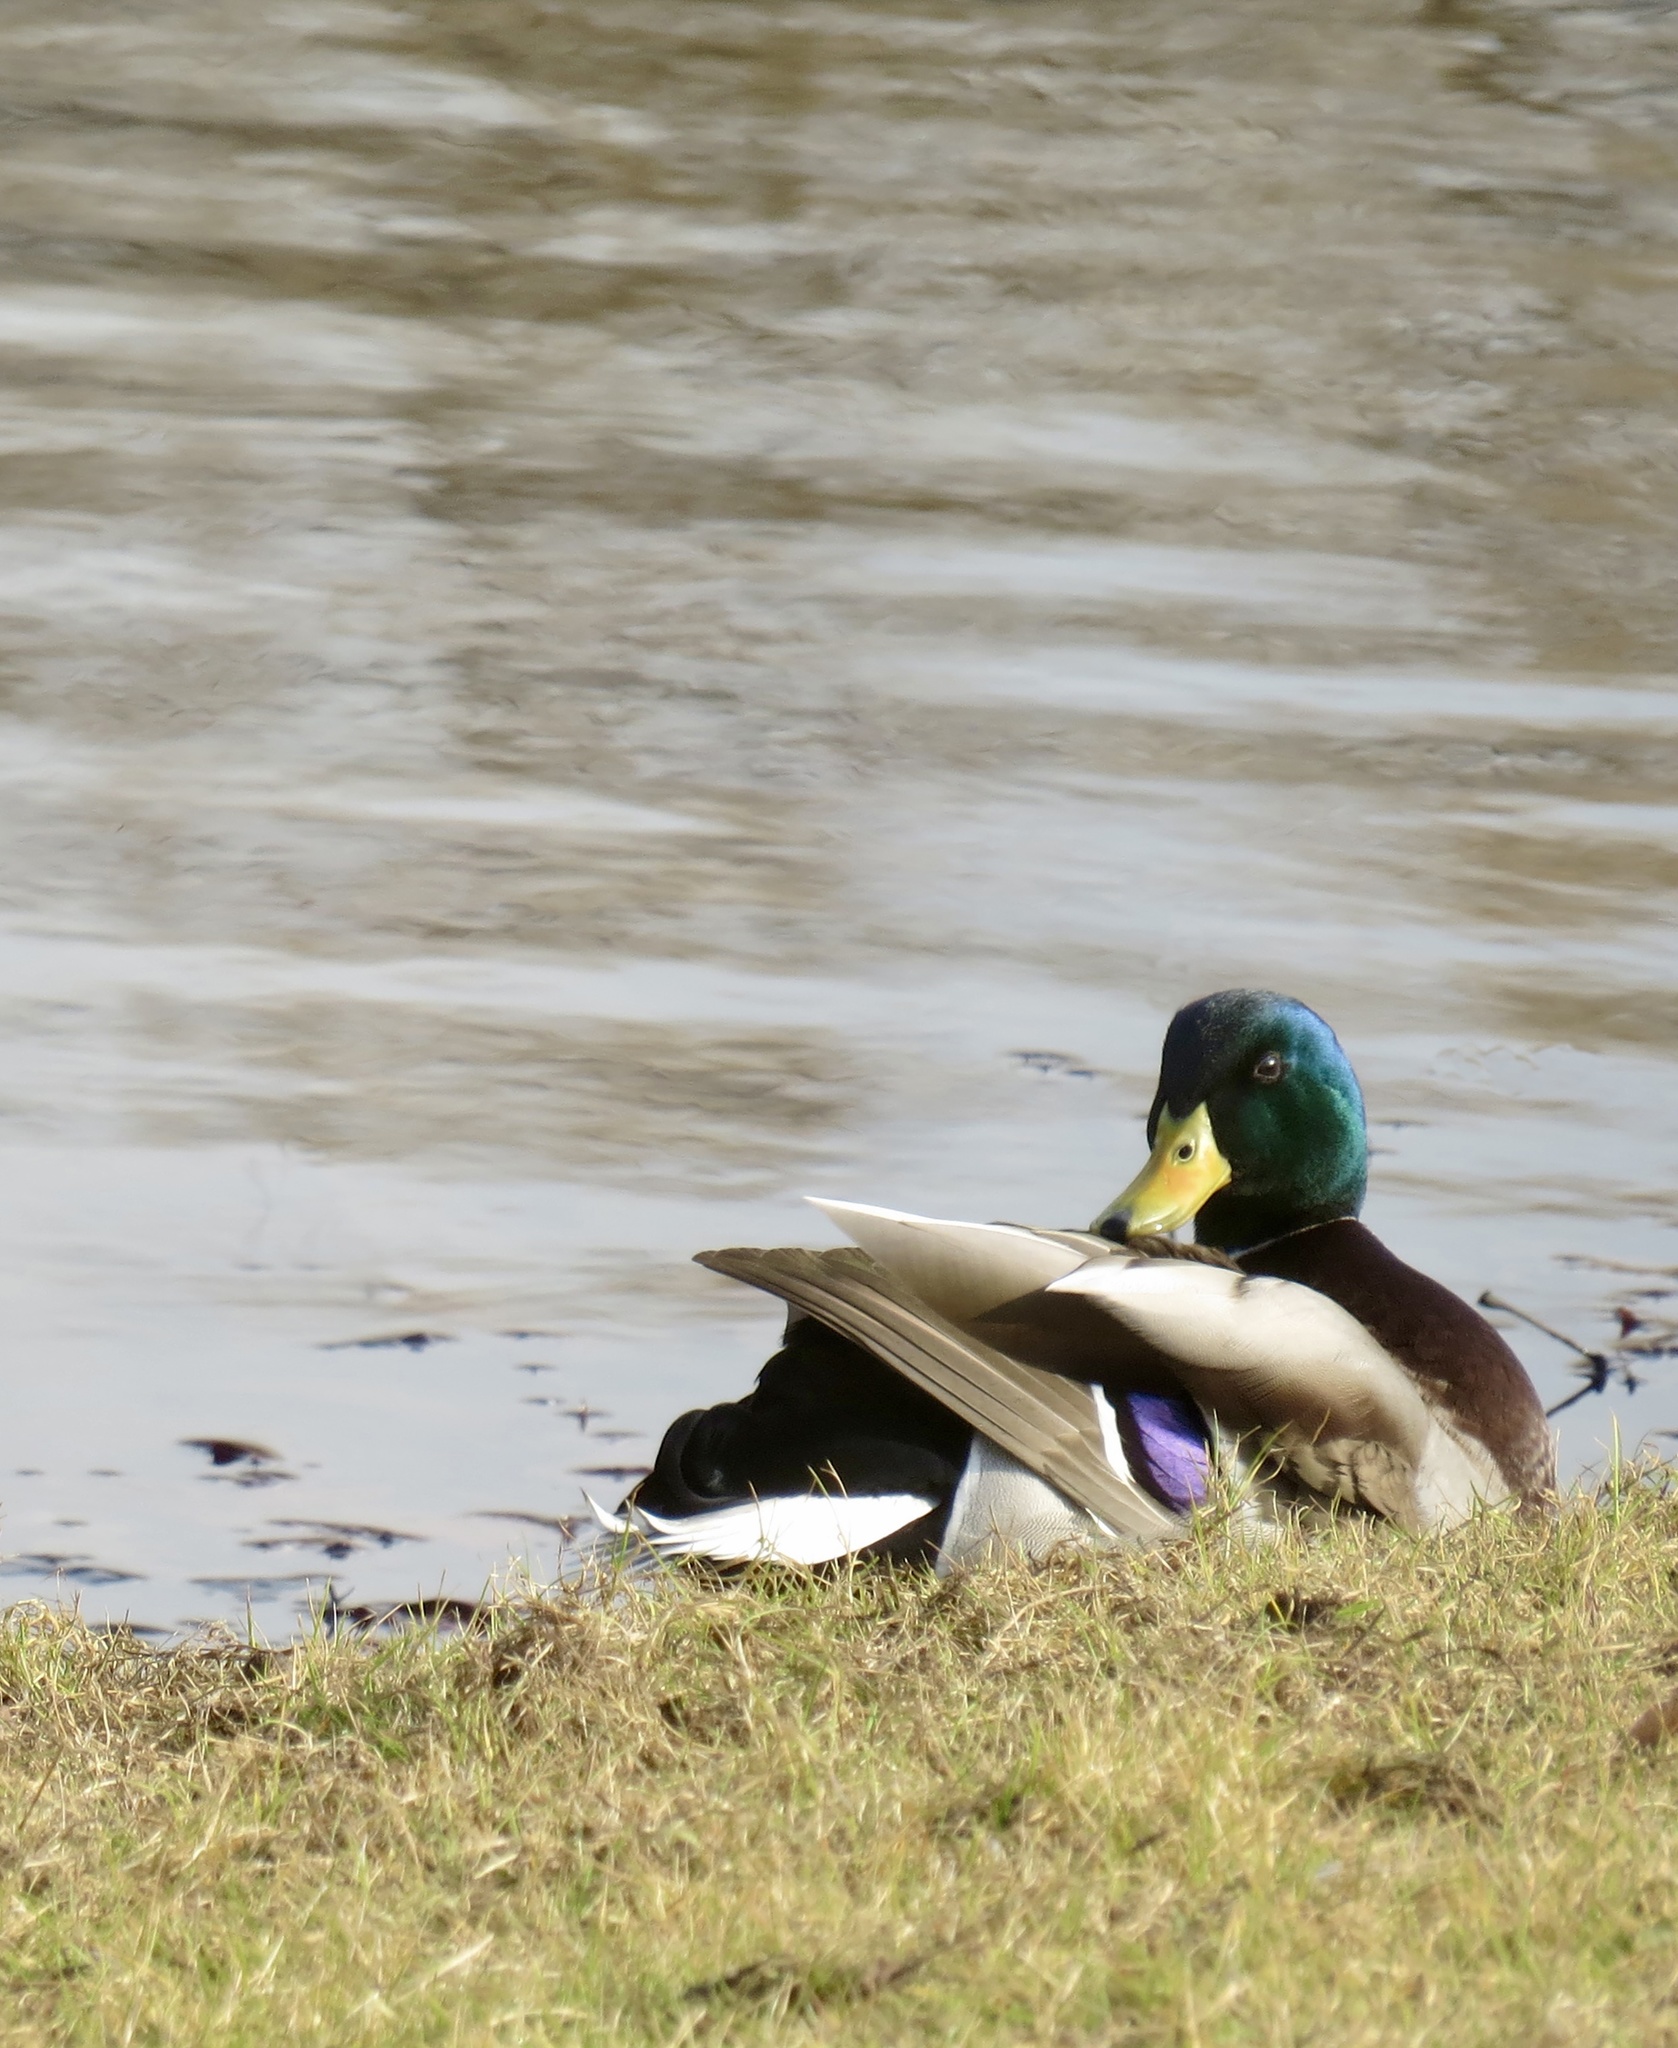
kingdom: Animalia
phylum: Chordata
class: Aves
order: Anseriformes
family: Anatidae
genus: Anas
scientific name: Anas platyrhynchos
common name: Mallard
